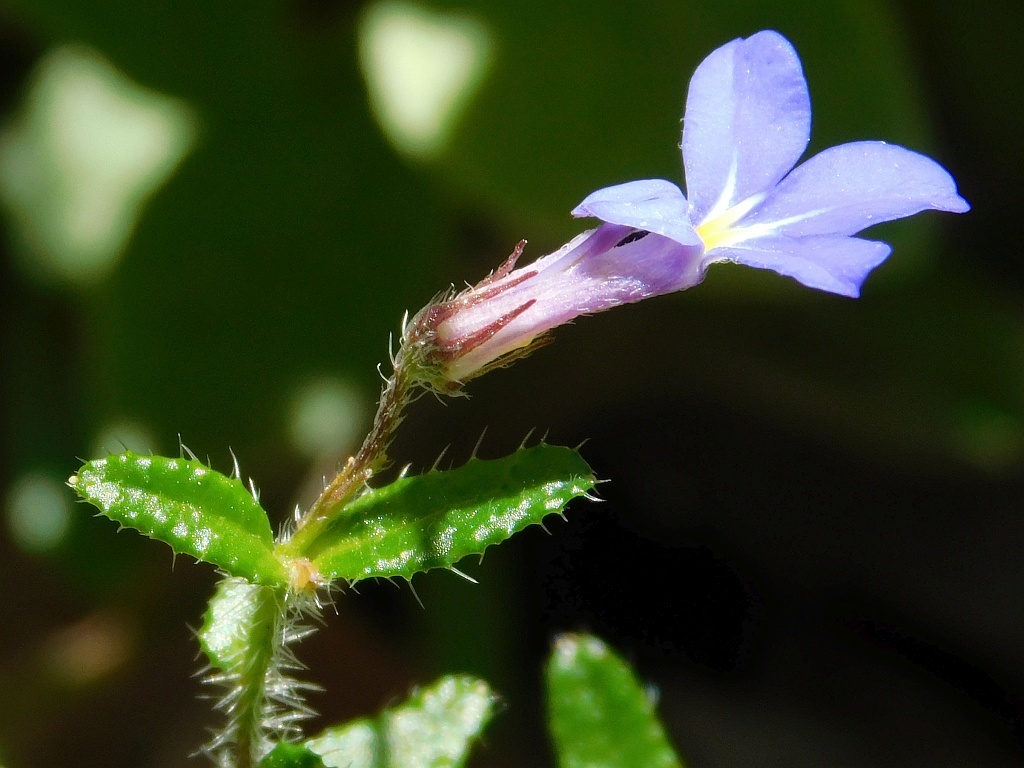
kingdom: Plantae
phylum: Tracheophyta
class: Magnoliopsida
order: Asterales
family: Campanulaceae
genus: Lobelia
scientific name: Lobelia neglecta
